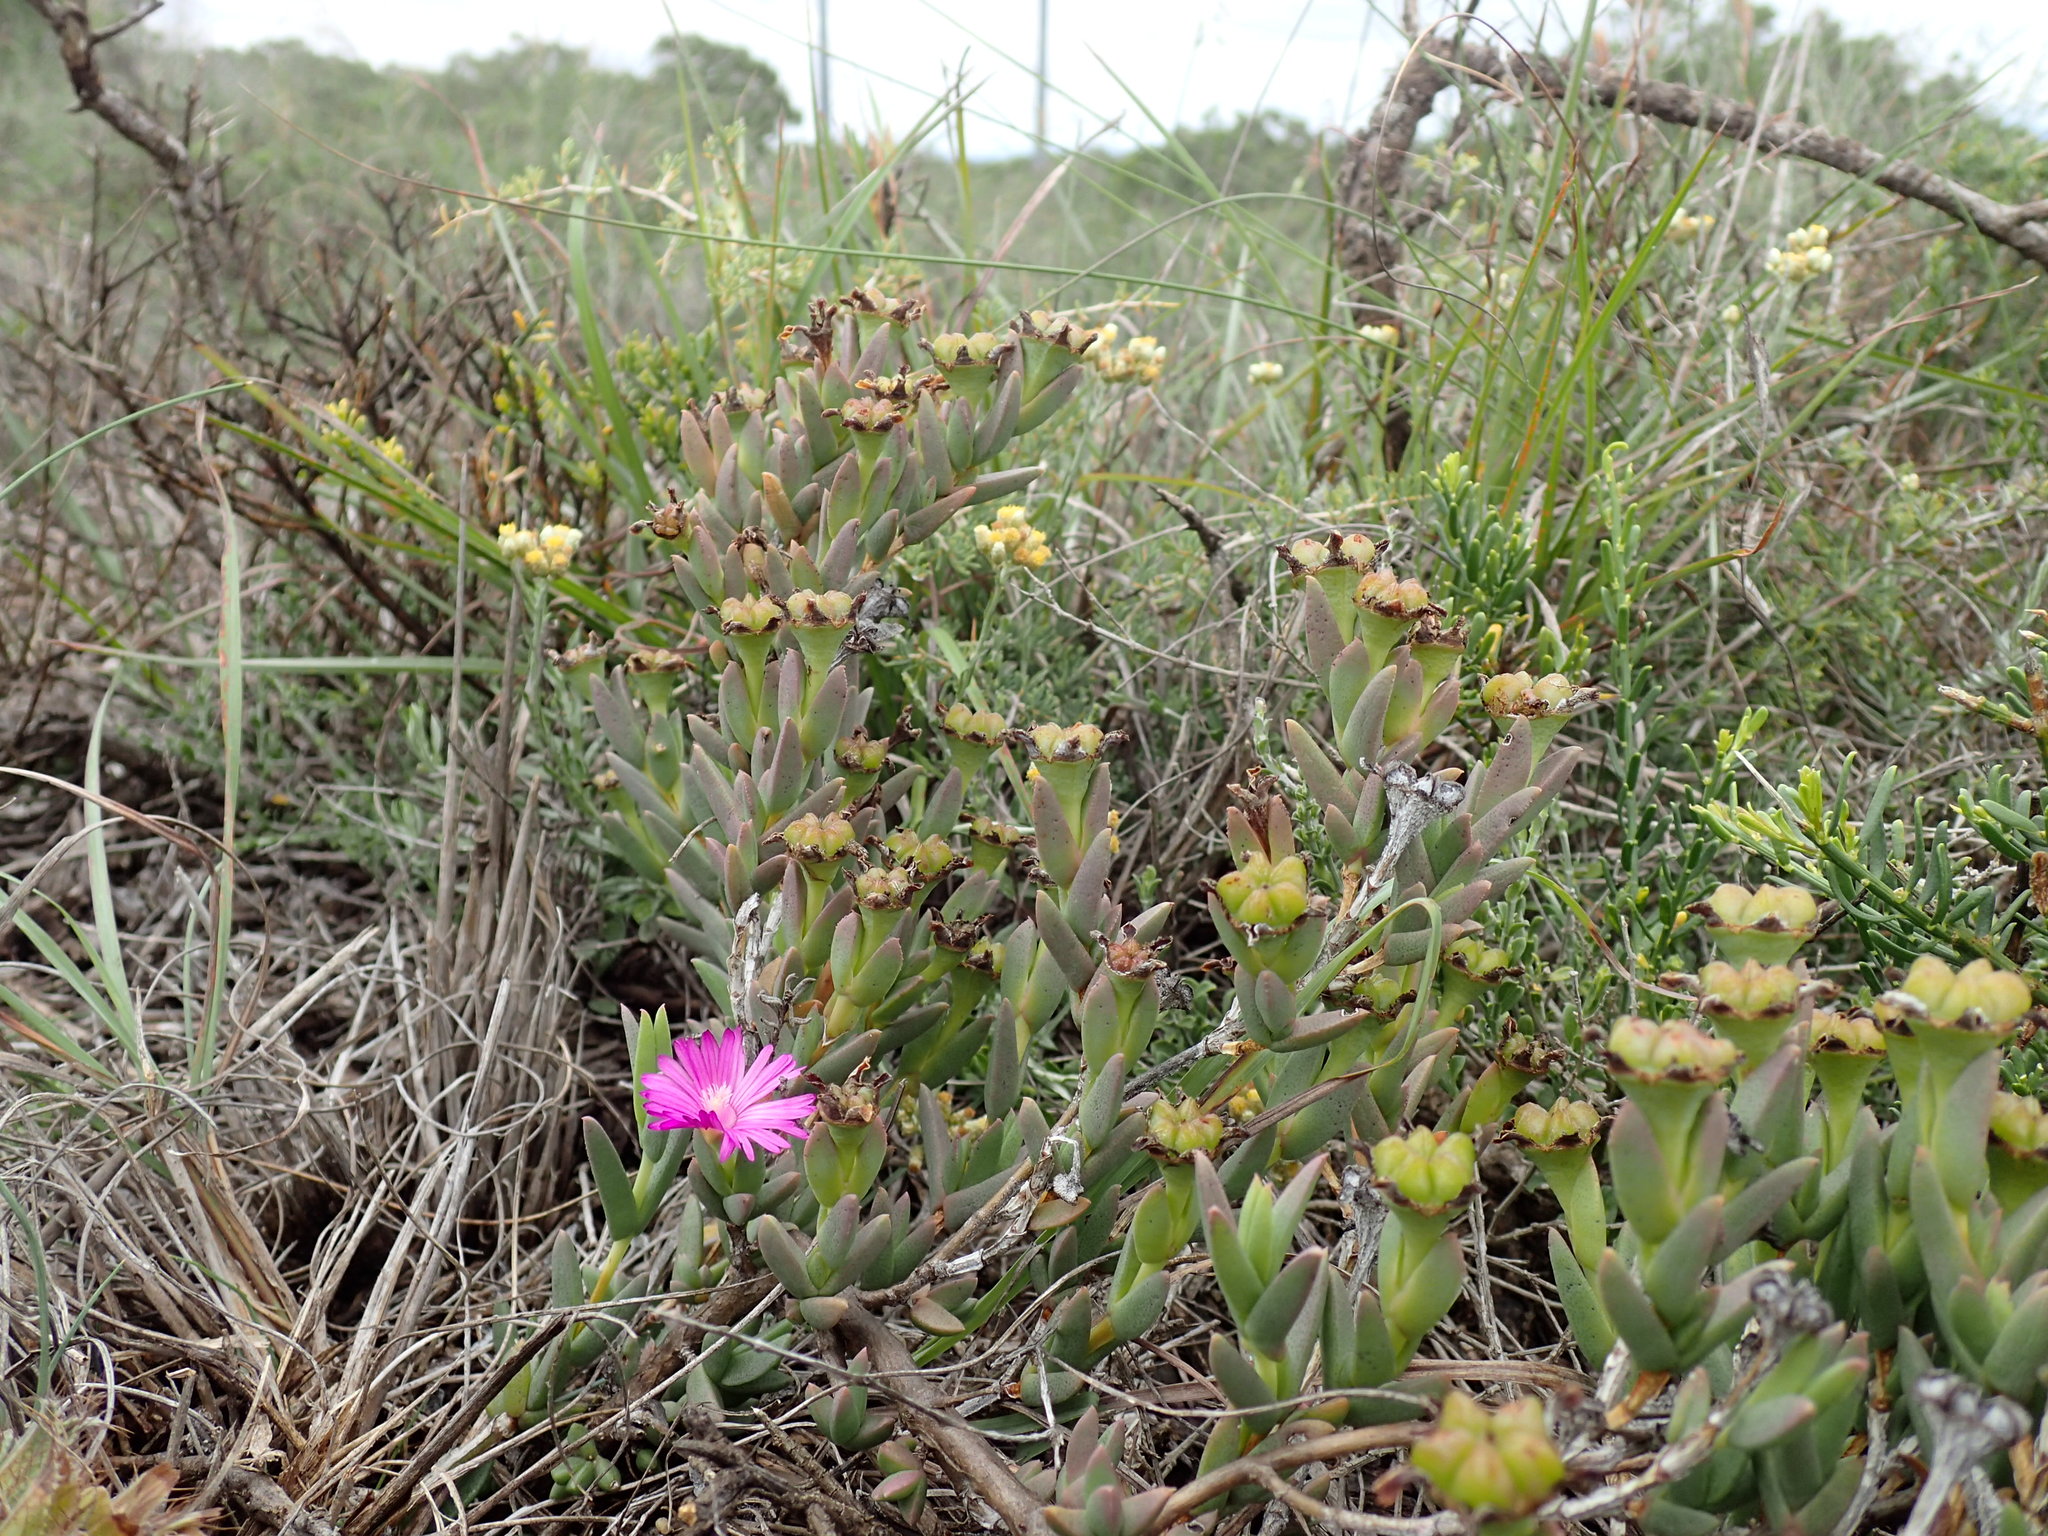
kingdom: Plantae
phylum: Tracheophyta
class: Magnoliopsida
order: Caryophyllales
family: Aizoaceae
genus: Ruschia
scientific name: Ruschia congesta
